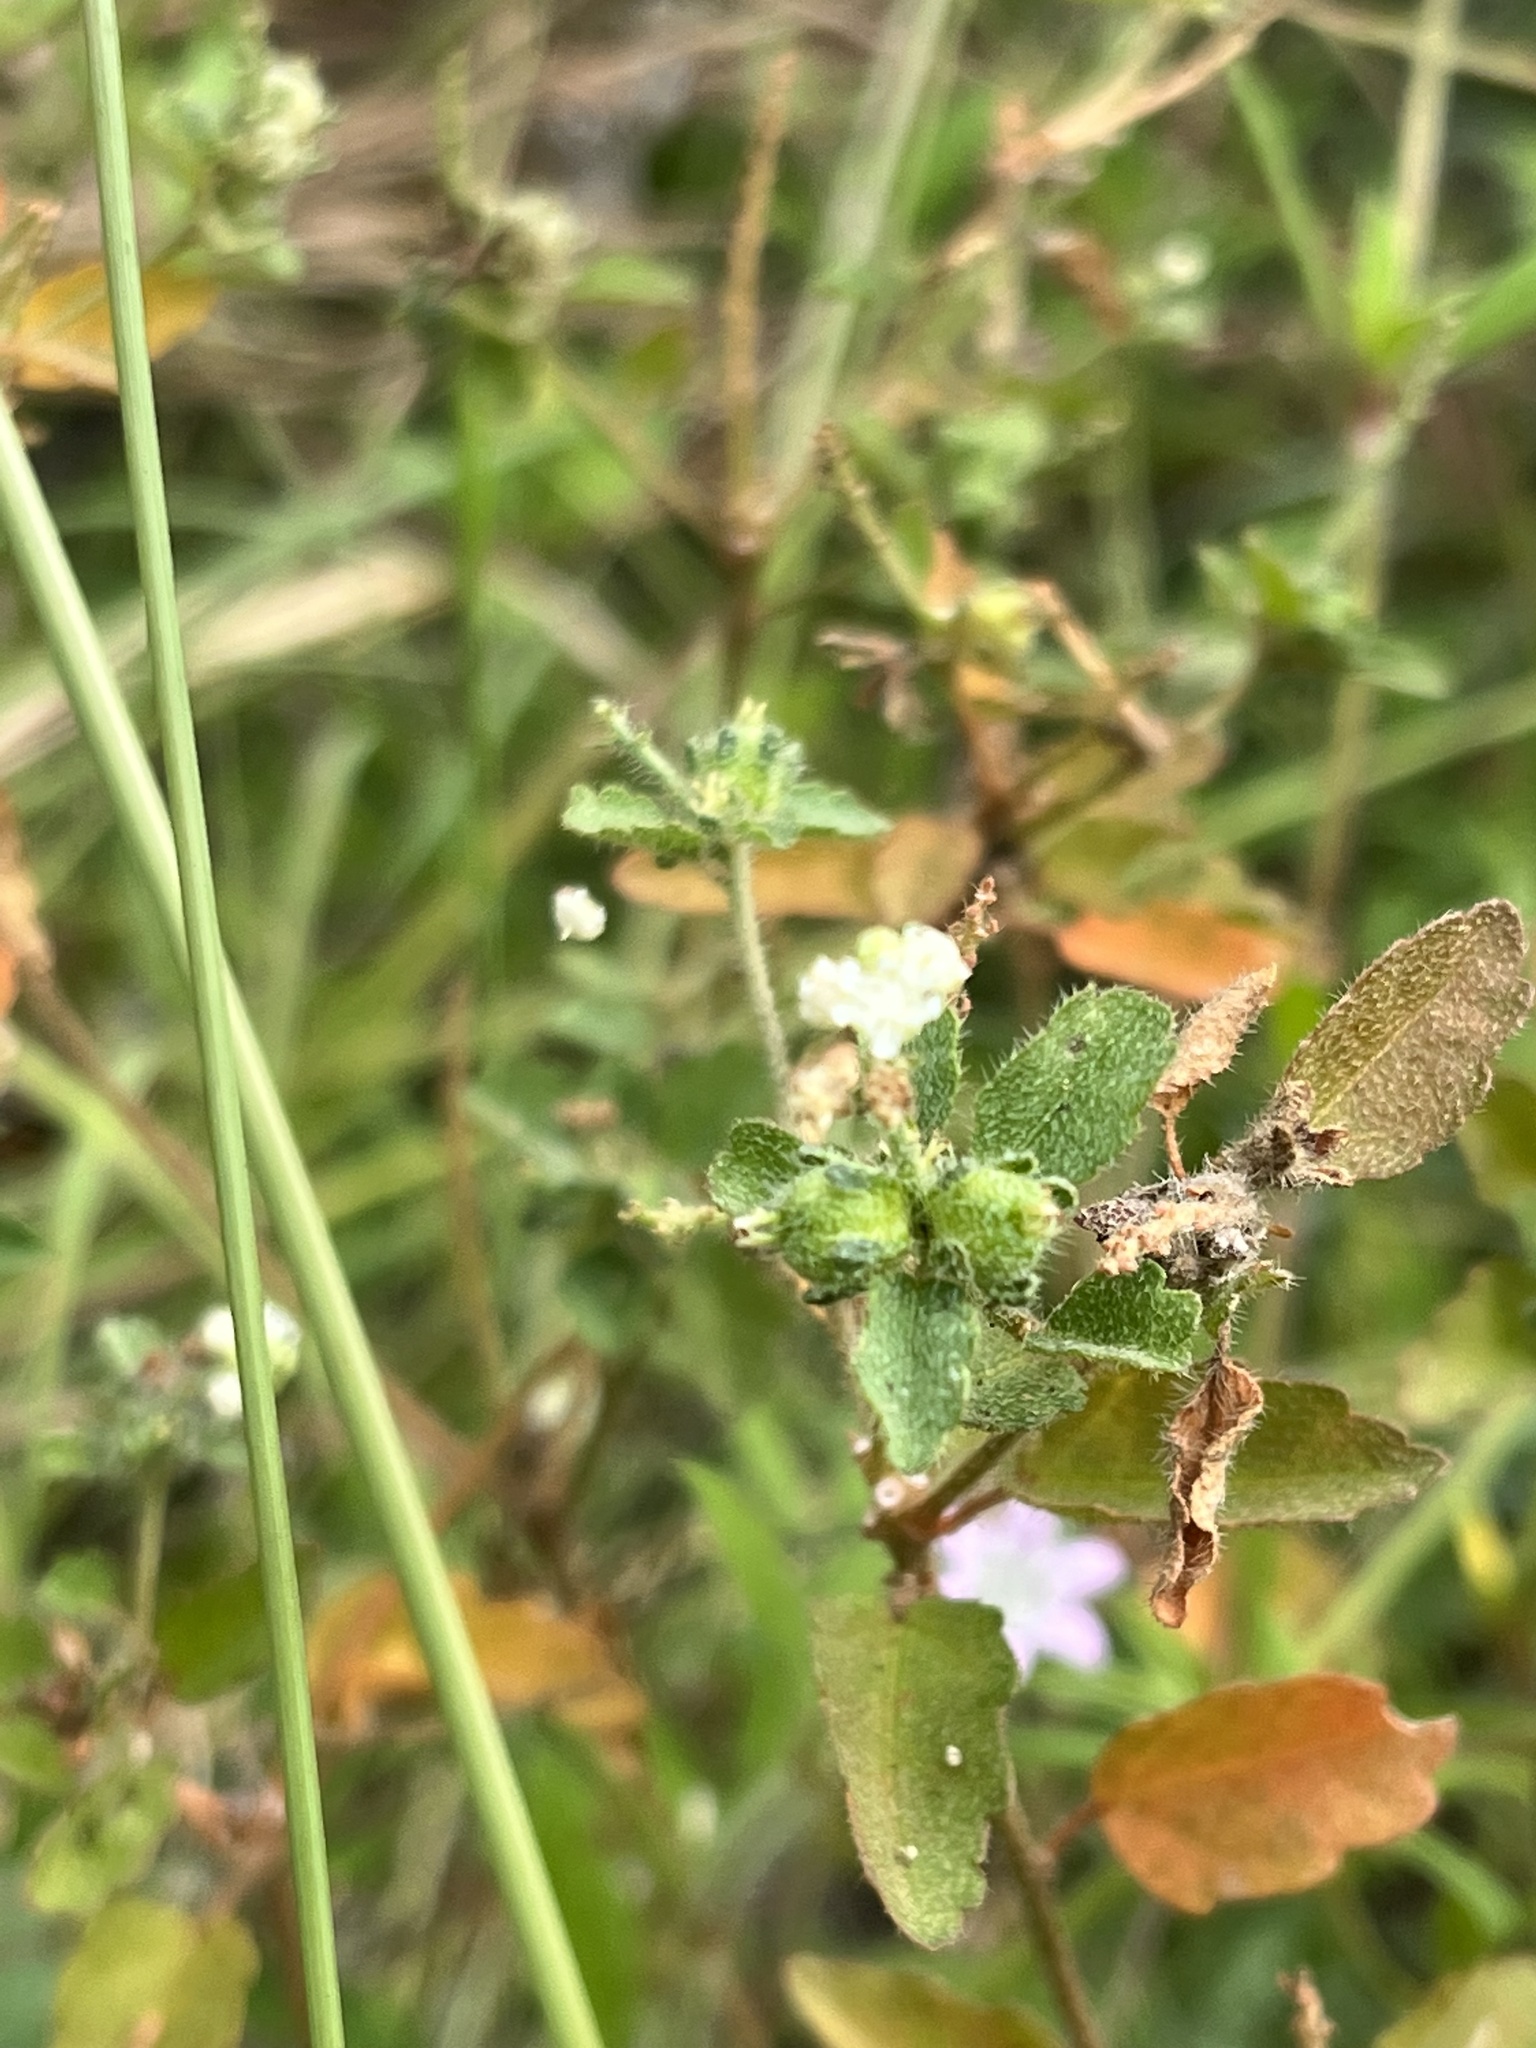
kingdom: Plantae
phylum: Tracheophyta
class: Magnoliopsida
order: Malpighiales
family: Euphorbiaceae
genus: Croton
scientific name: Croton glandulosus
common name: Tropic croton
